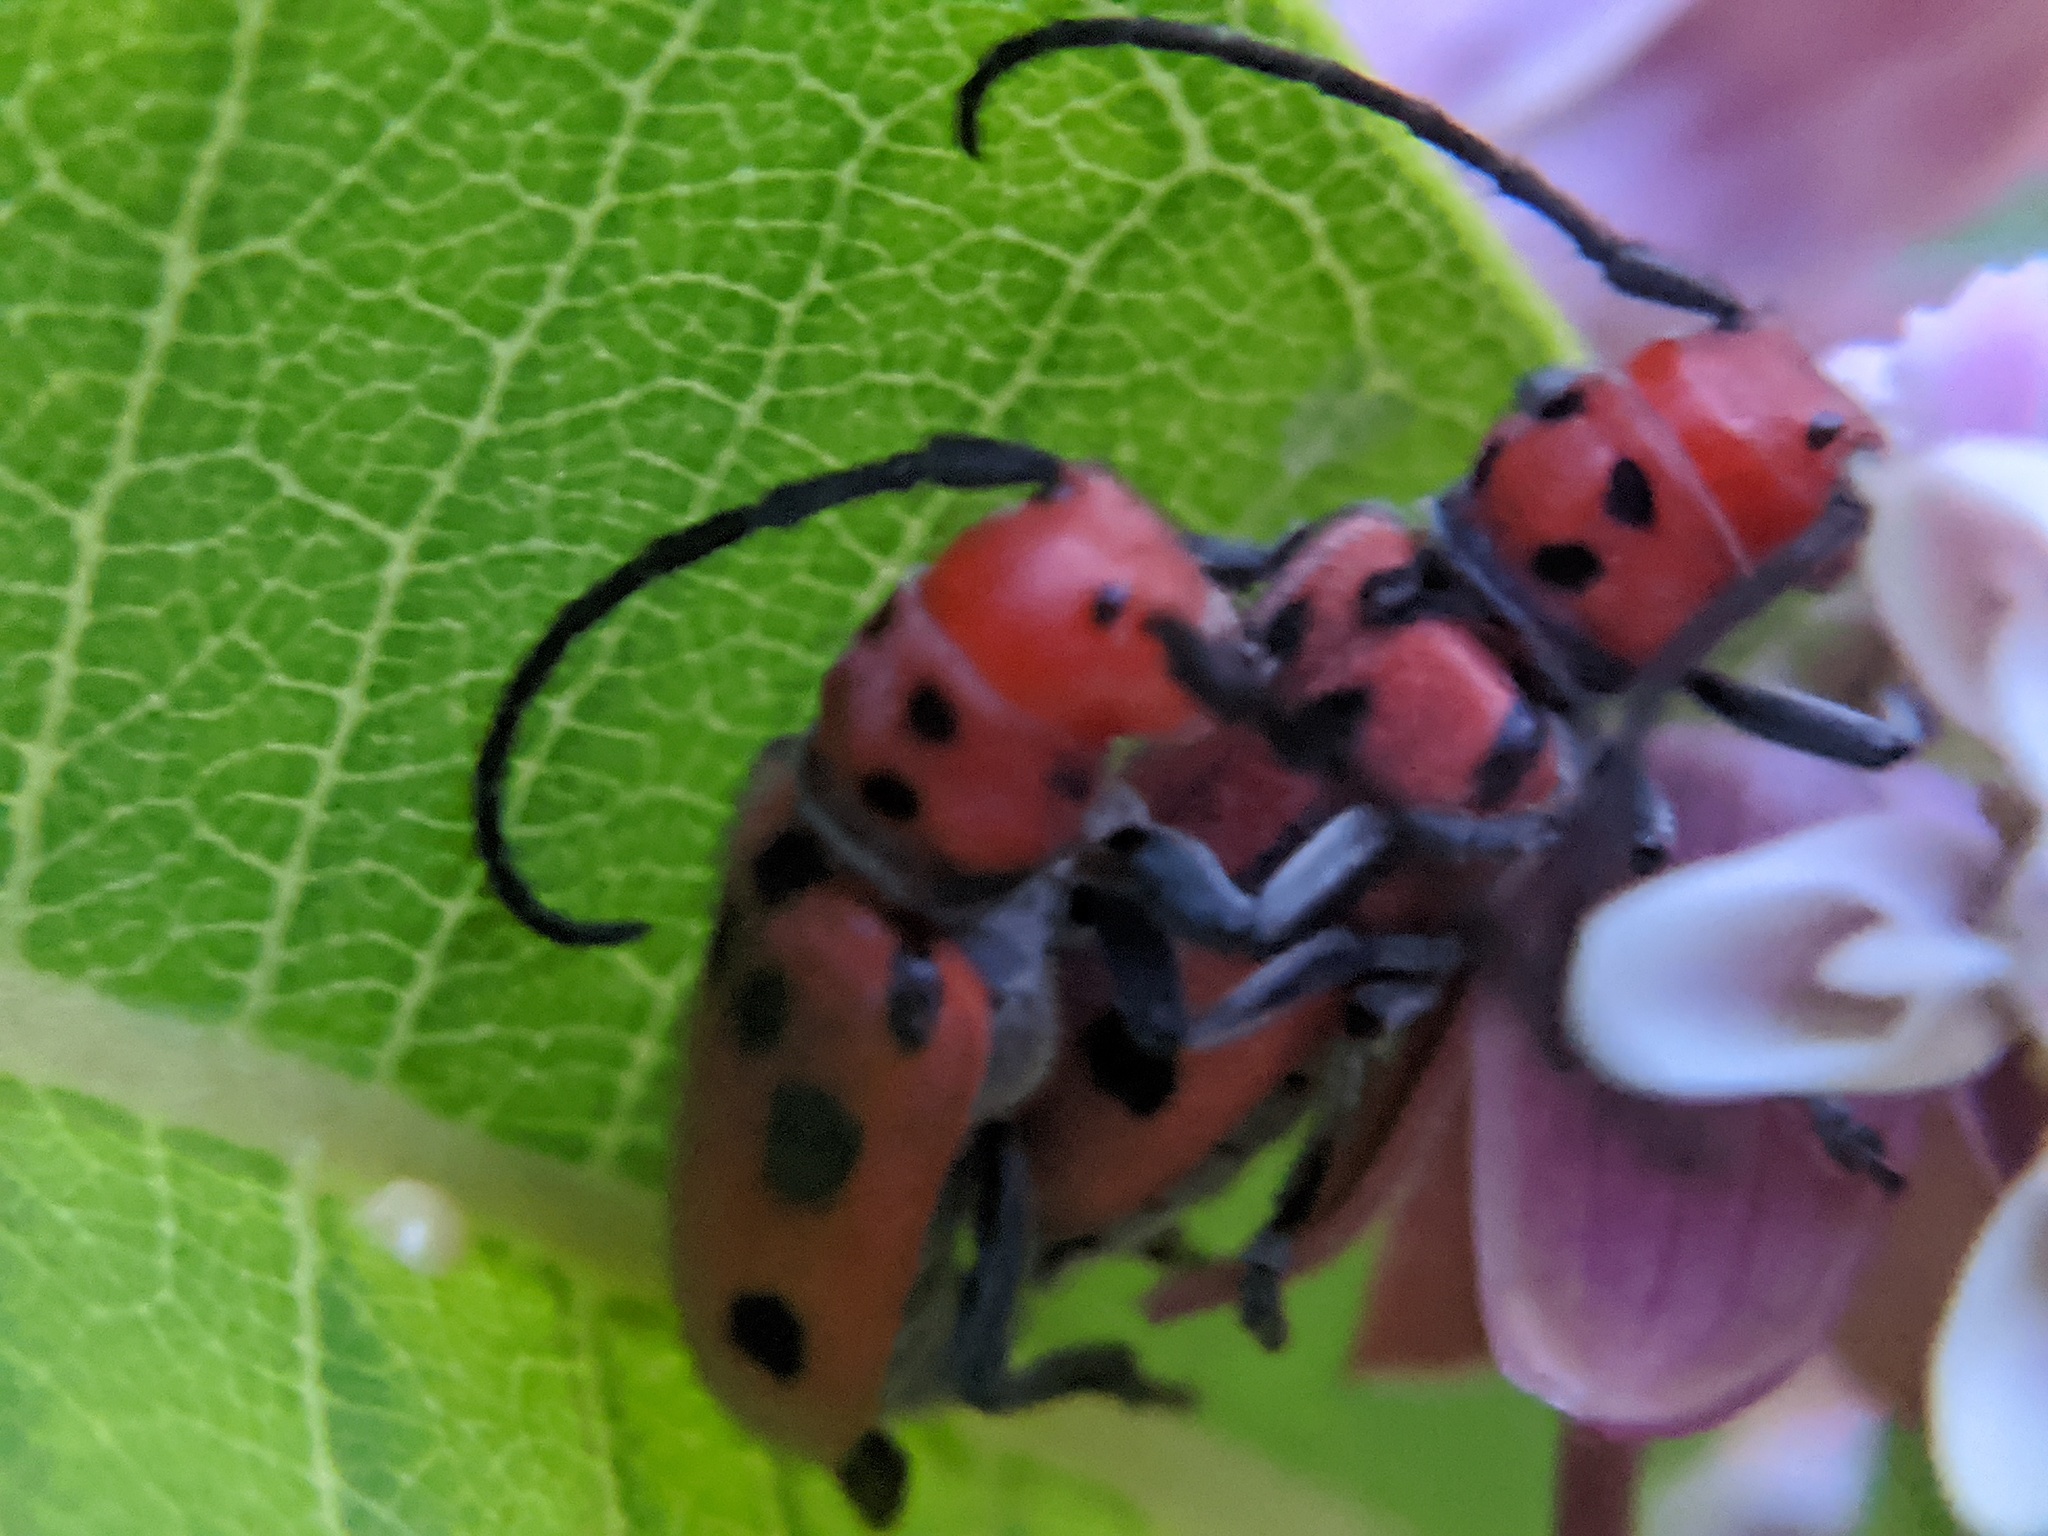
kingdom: Animalia
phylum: Arthropoda
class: Insecta
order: Coleoptera
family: Cerambycidae
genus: Tetraopes
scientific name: Tetraopes tetrophthalmus
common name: Red milkweed beetle
